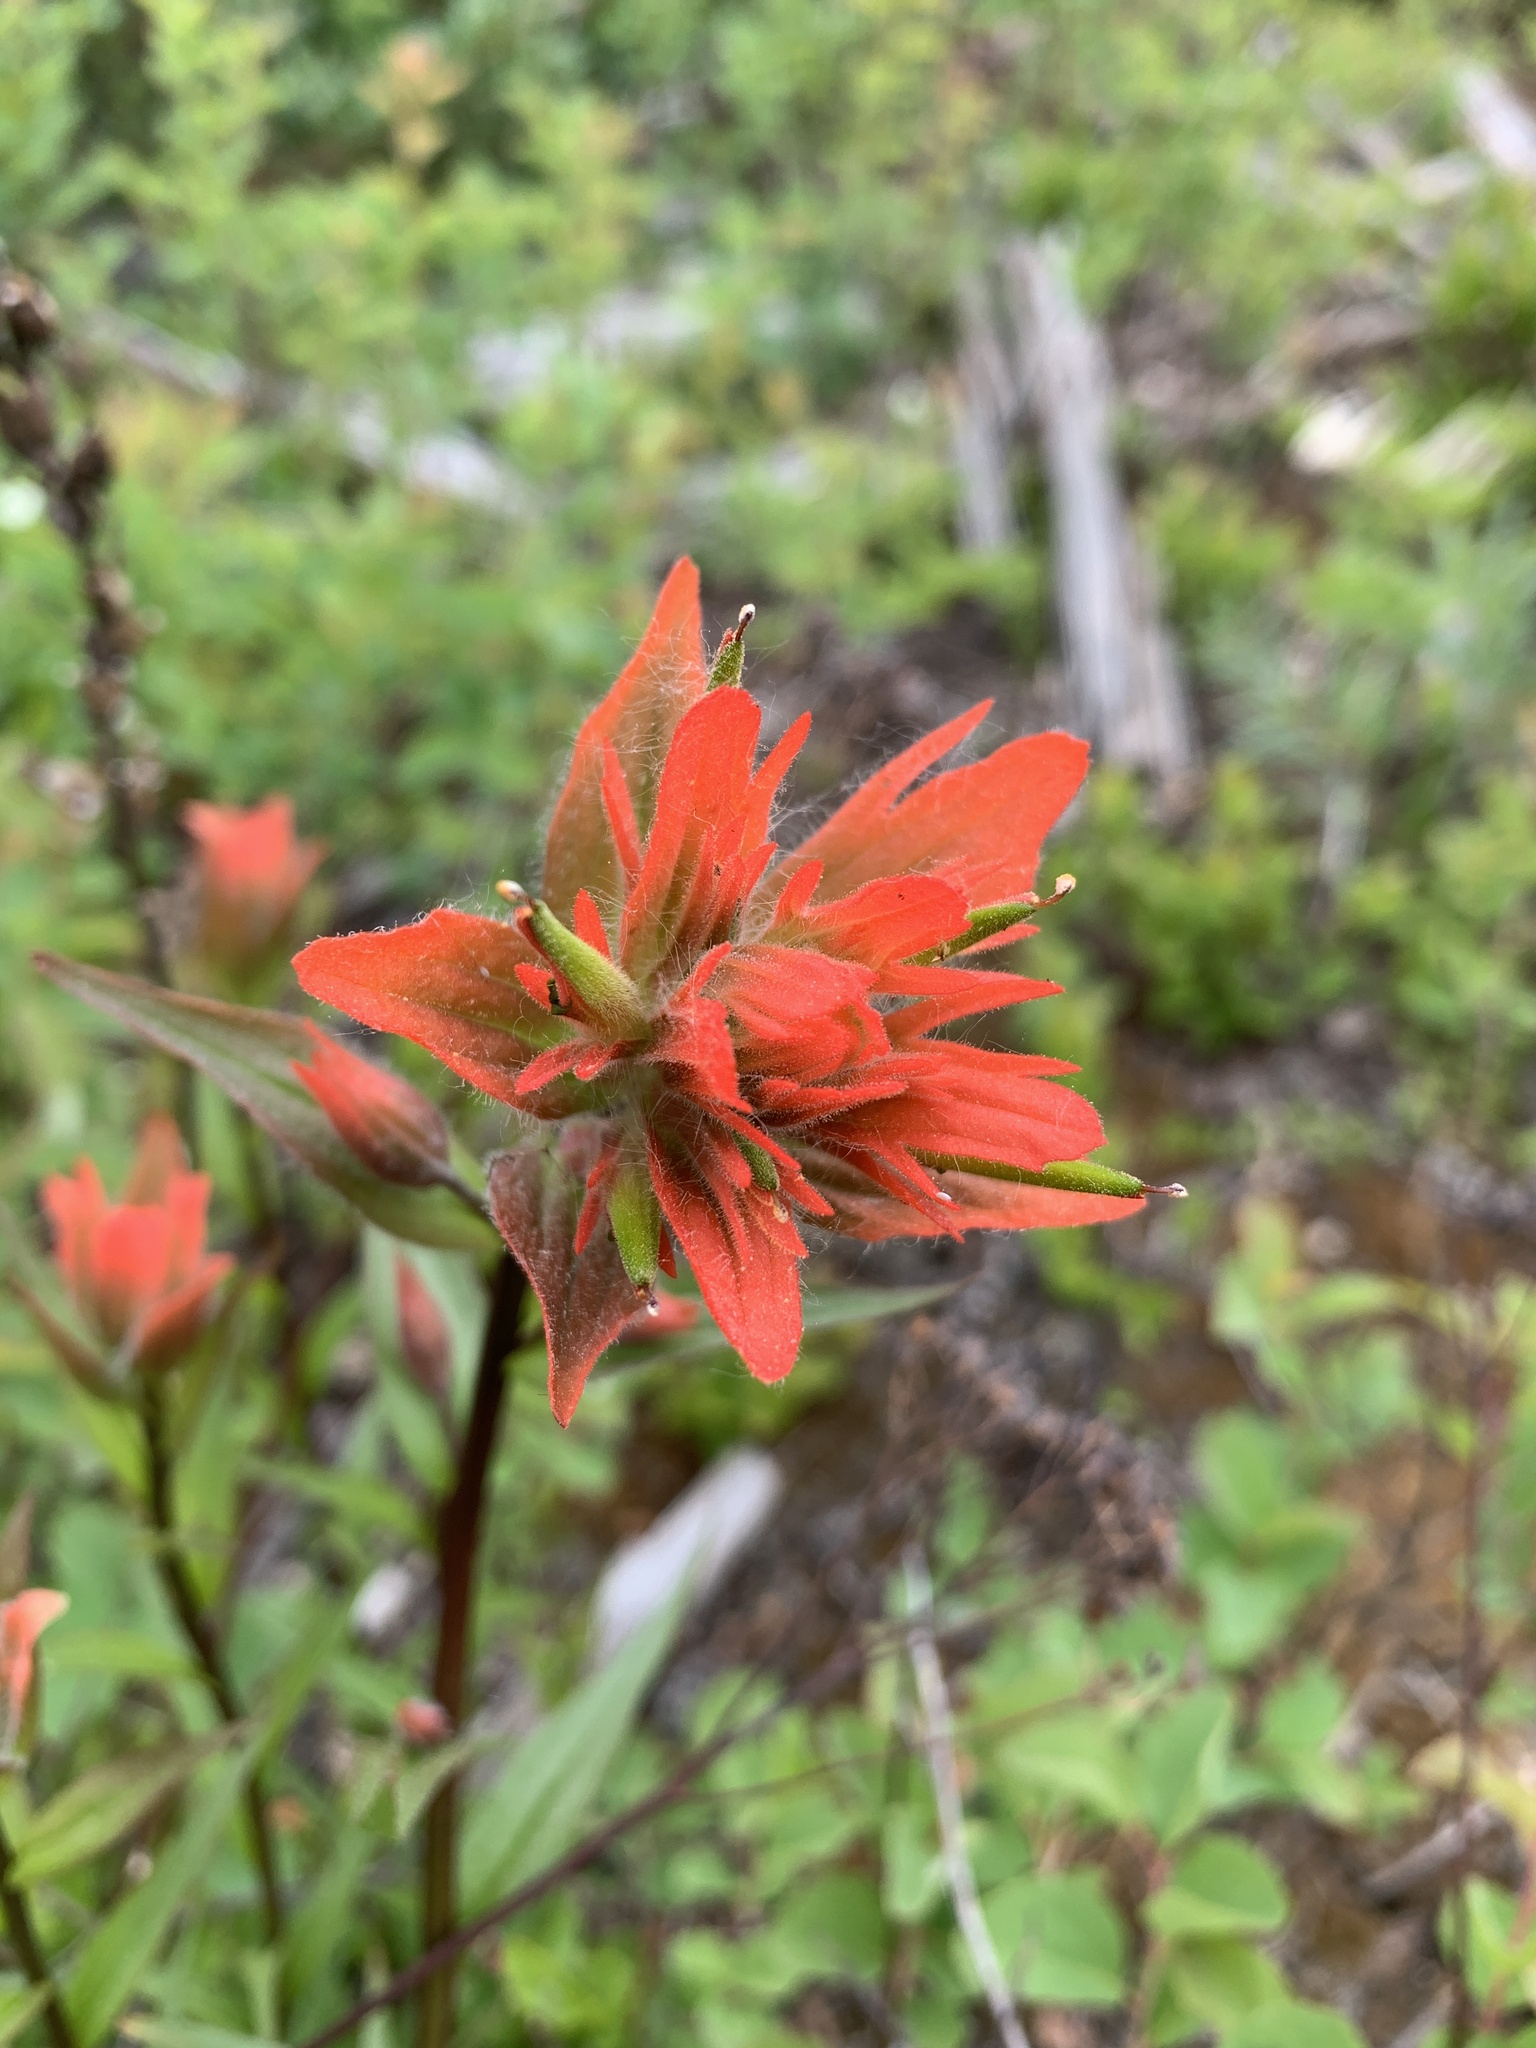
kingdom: Plantae
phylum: Tracheophyta
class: Magnoliopsida
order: Lamiales
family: Orobanchaceae
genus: Castilleja
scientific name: Castilleja miniata
